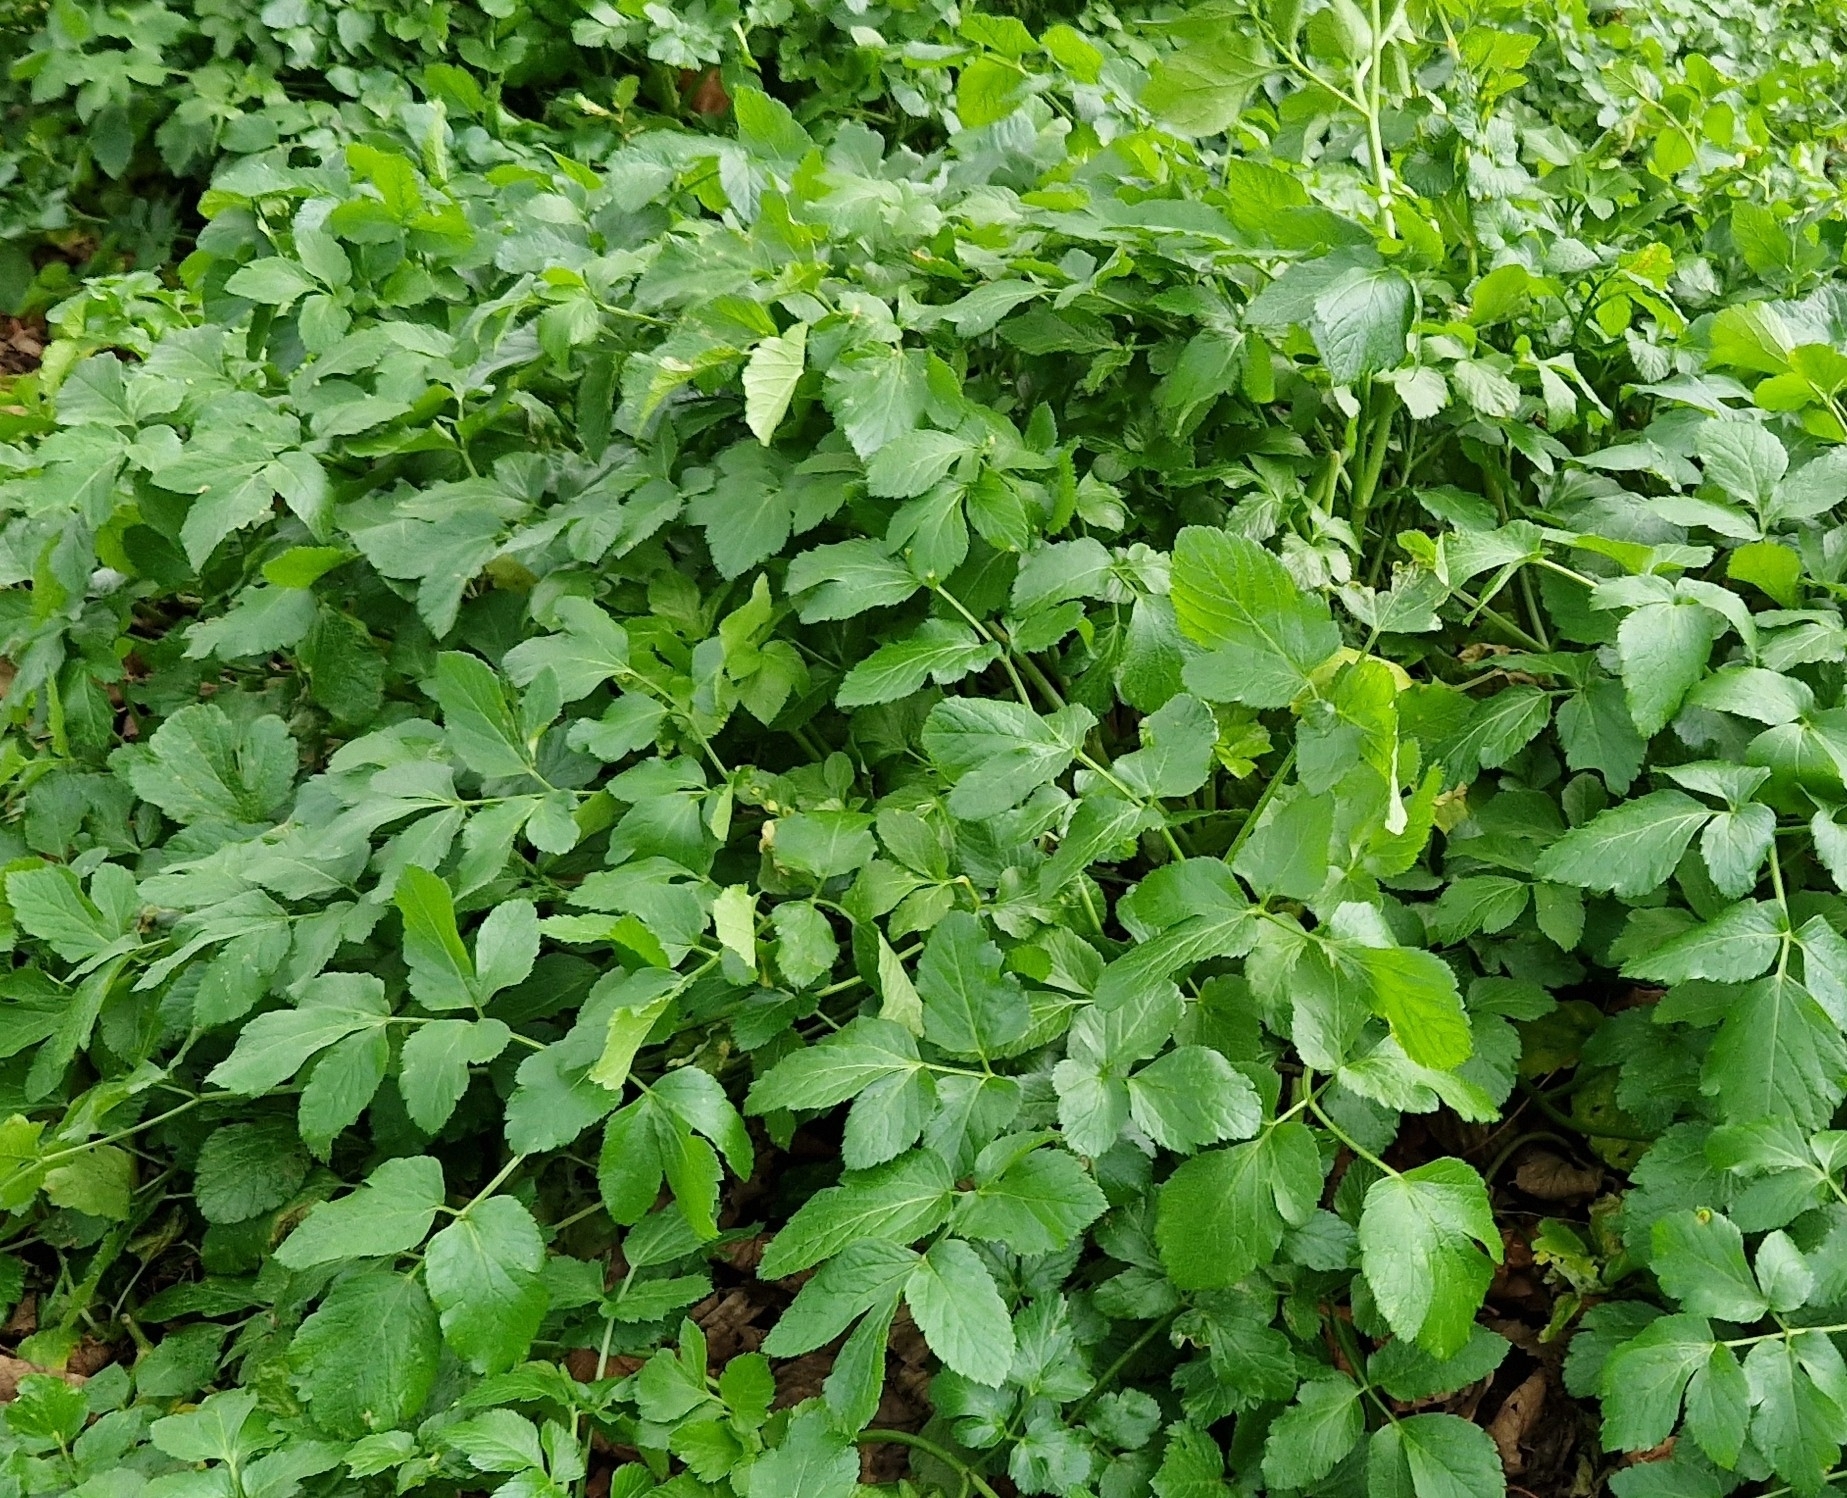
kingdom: Plantae
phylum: Tracheophyta
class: Magnoliopsida
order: Apiales
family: Apiaceae
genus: Smyrnium
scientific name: Smyrnium olusatrum
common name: Alexanders
